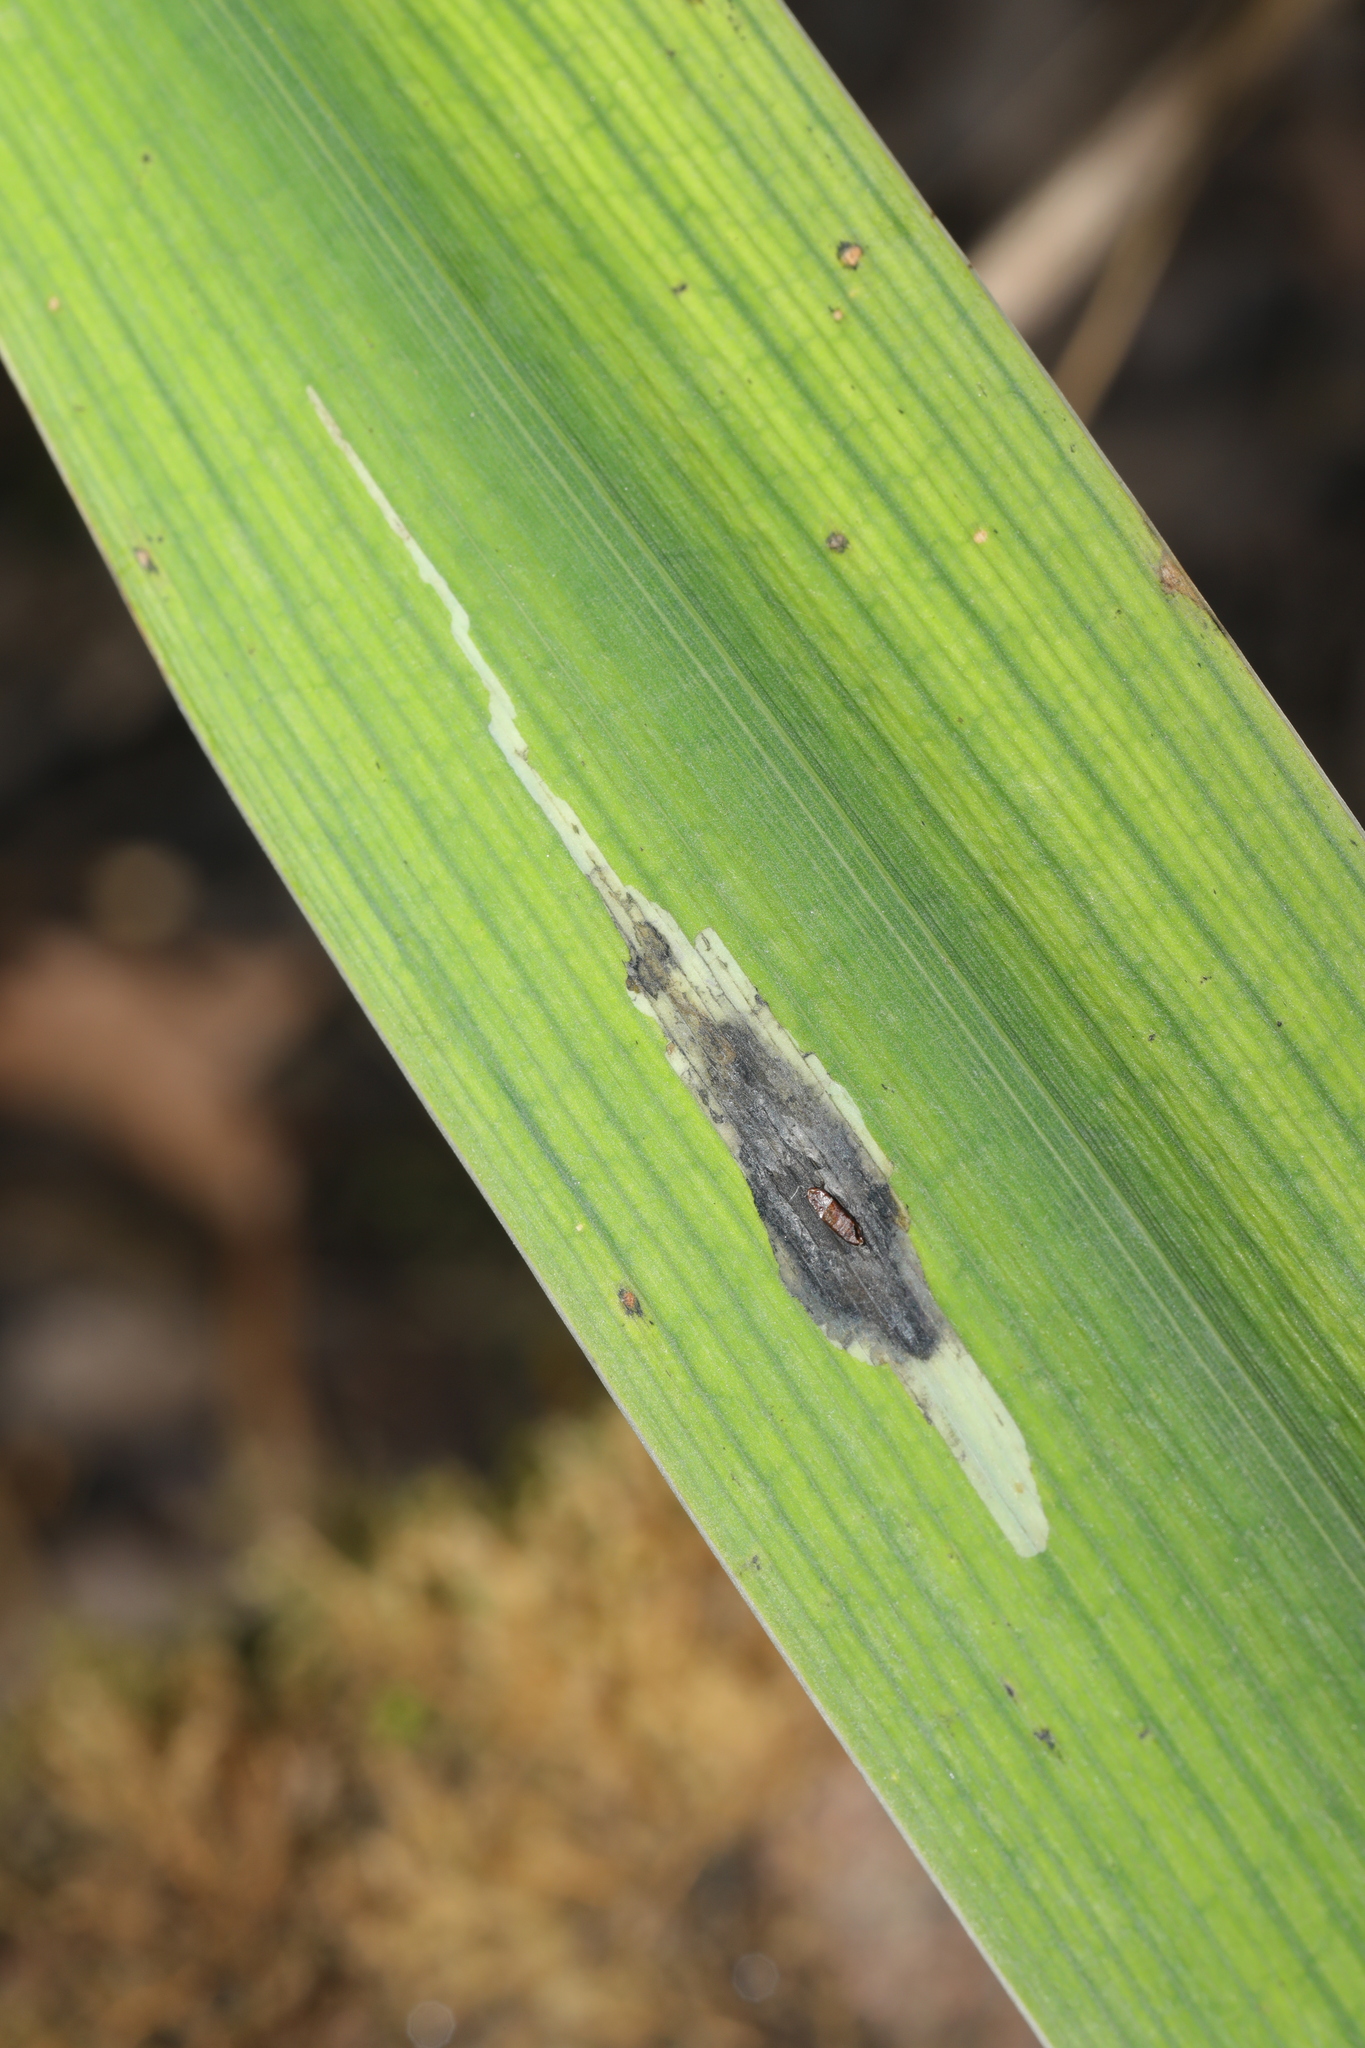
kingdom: Animalia
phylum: Arthropoda
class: Insecta
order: Diptera
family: Agromyzidae
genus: Cerodontha
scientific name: Cerodontha ircos
